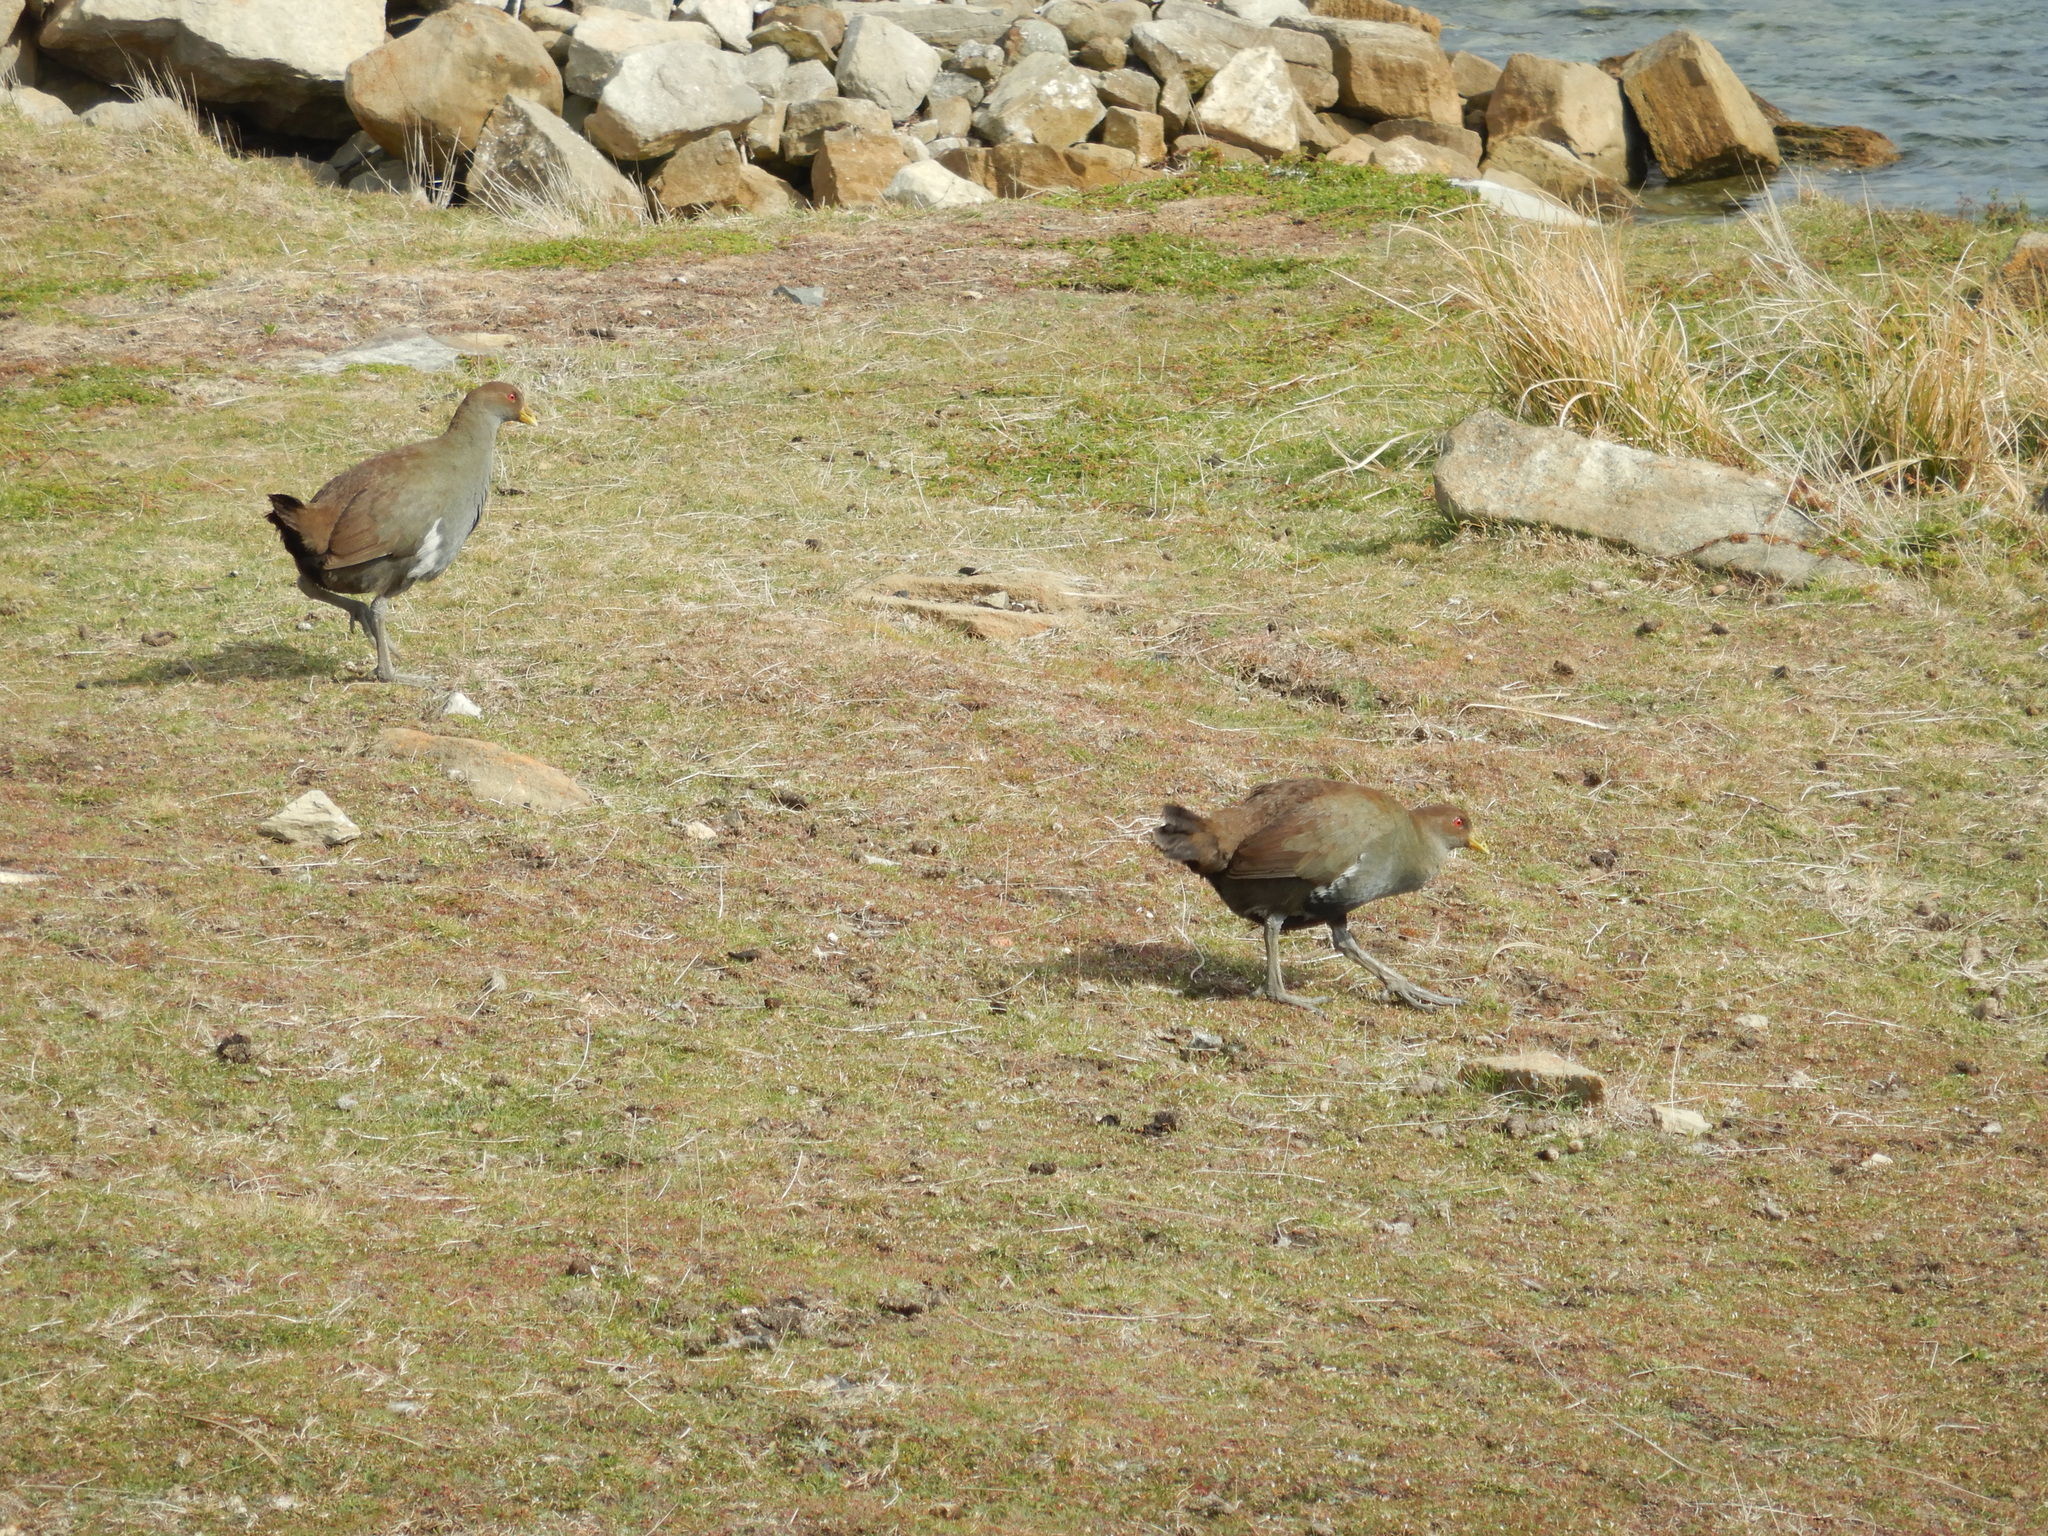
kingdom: Animalia
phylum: Chordata
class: Aves
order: Gruiformes
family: Rallidae
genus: Gallinula
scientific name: Gallinula mortierii
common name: Tasmanian nativehen
